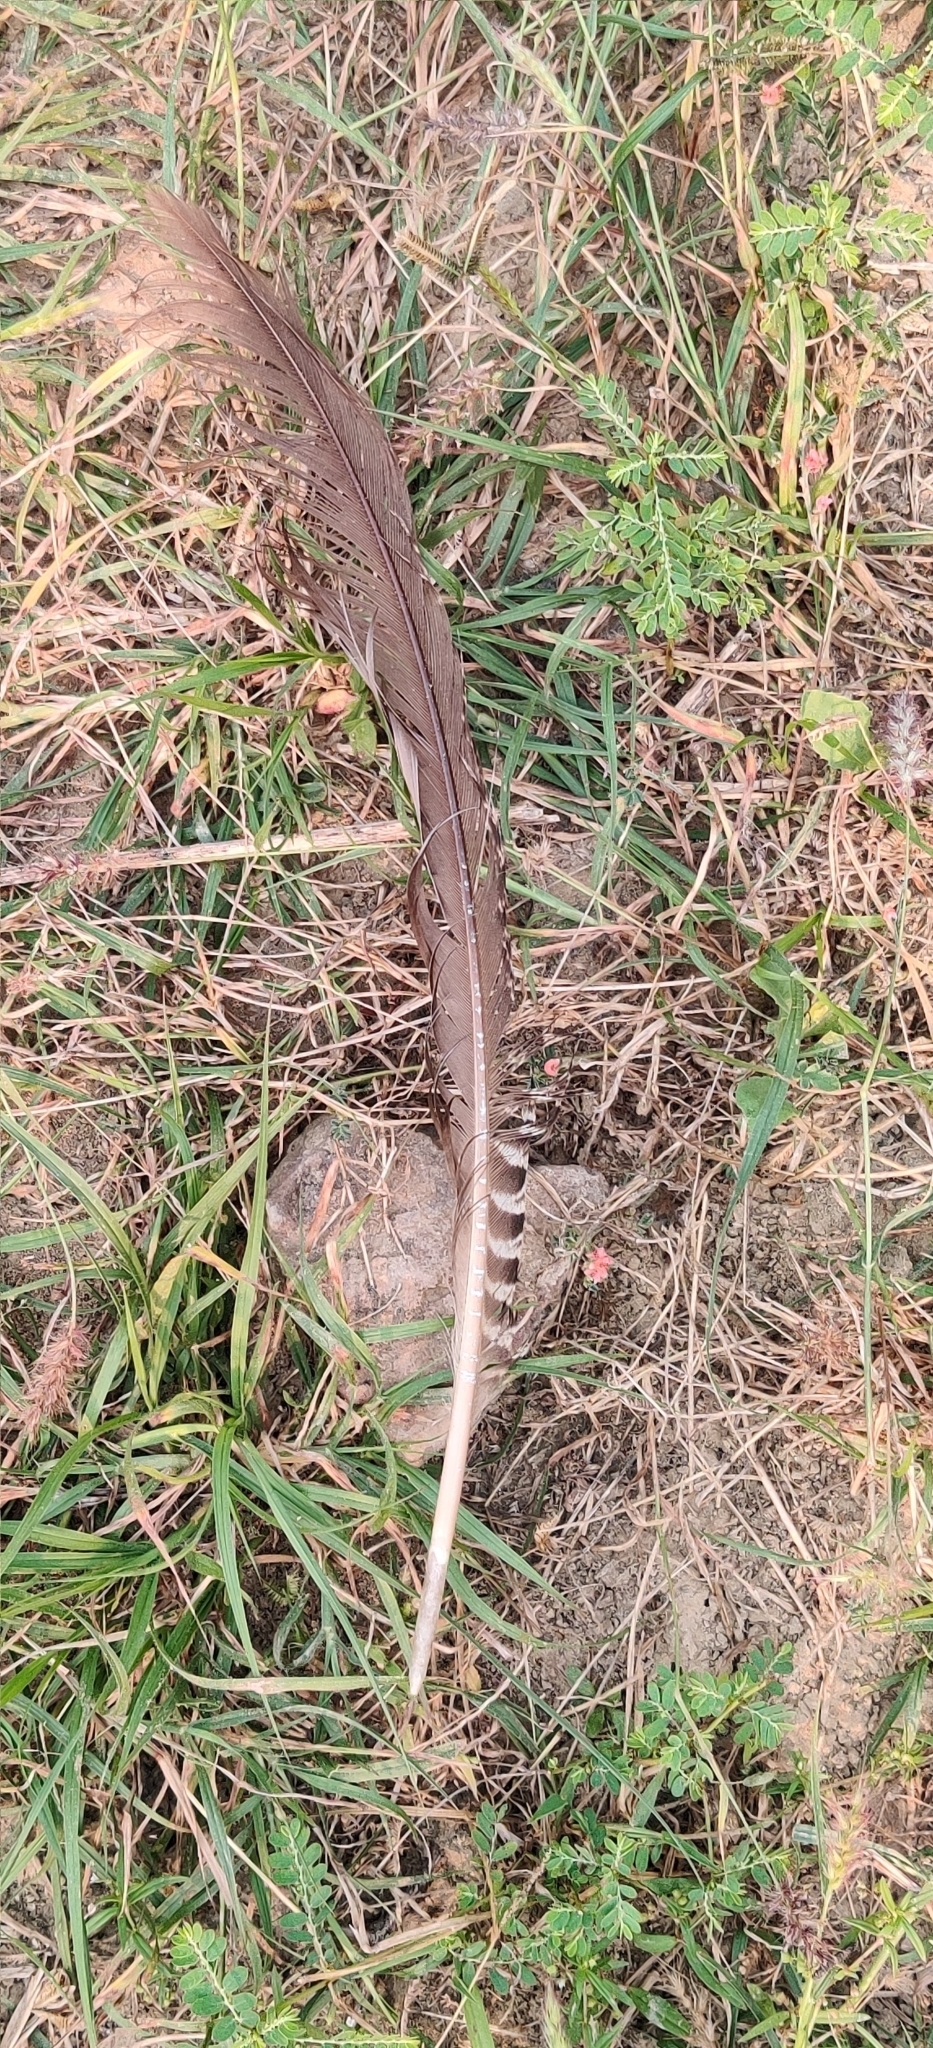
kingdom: Animalia
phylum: Chordata
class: Aves
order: Galliformes
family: Phasianidae
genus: Pavo
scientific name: Pavo cristatus
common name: Indian peafowl
